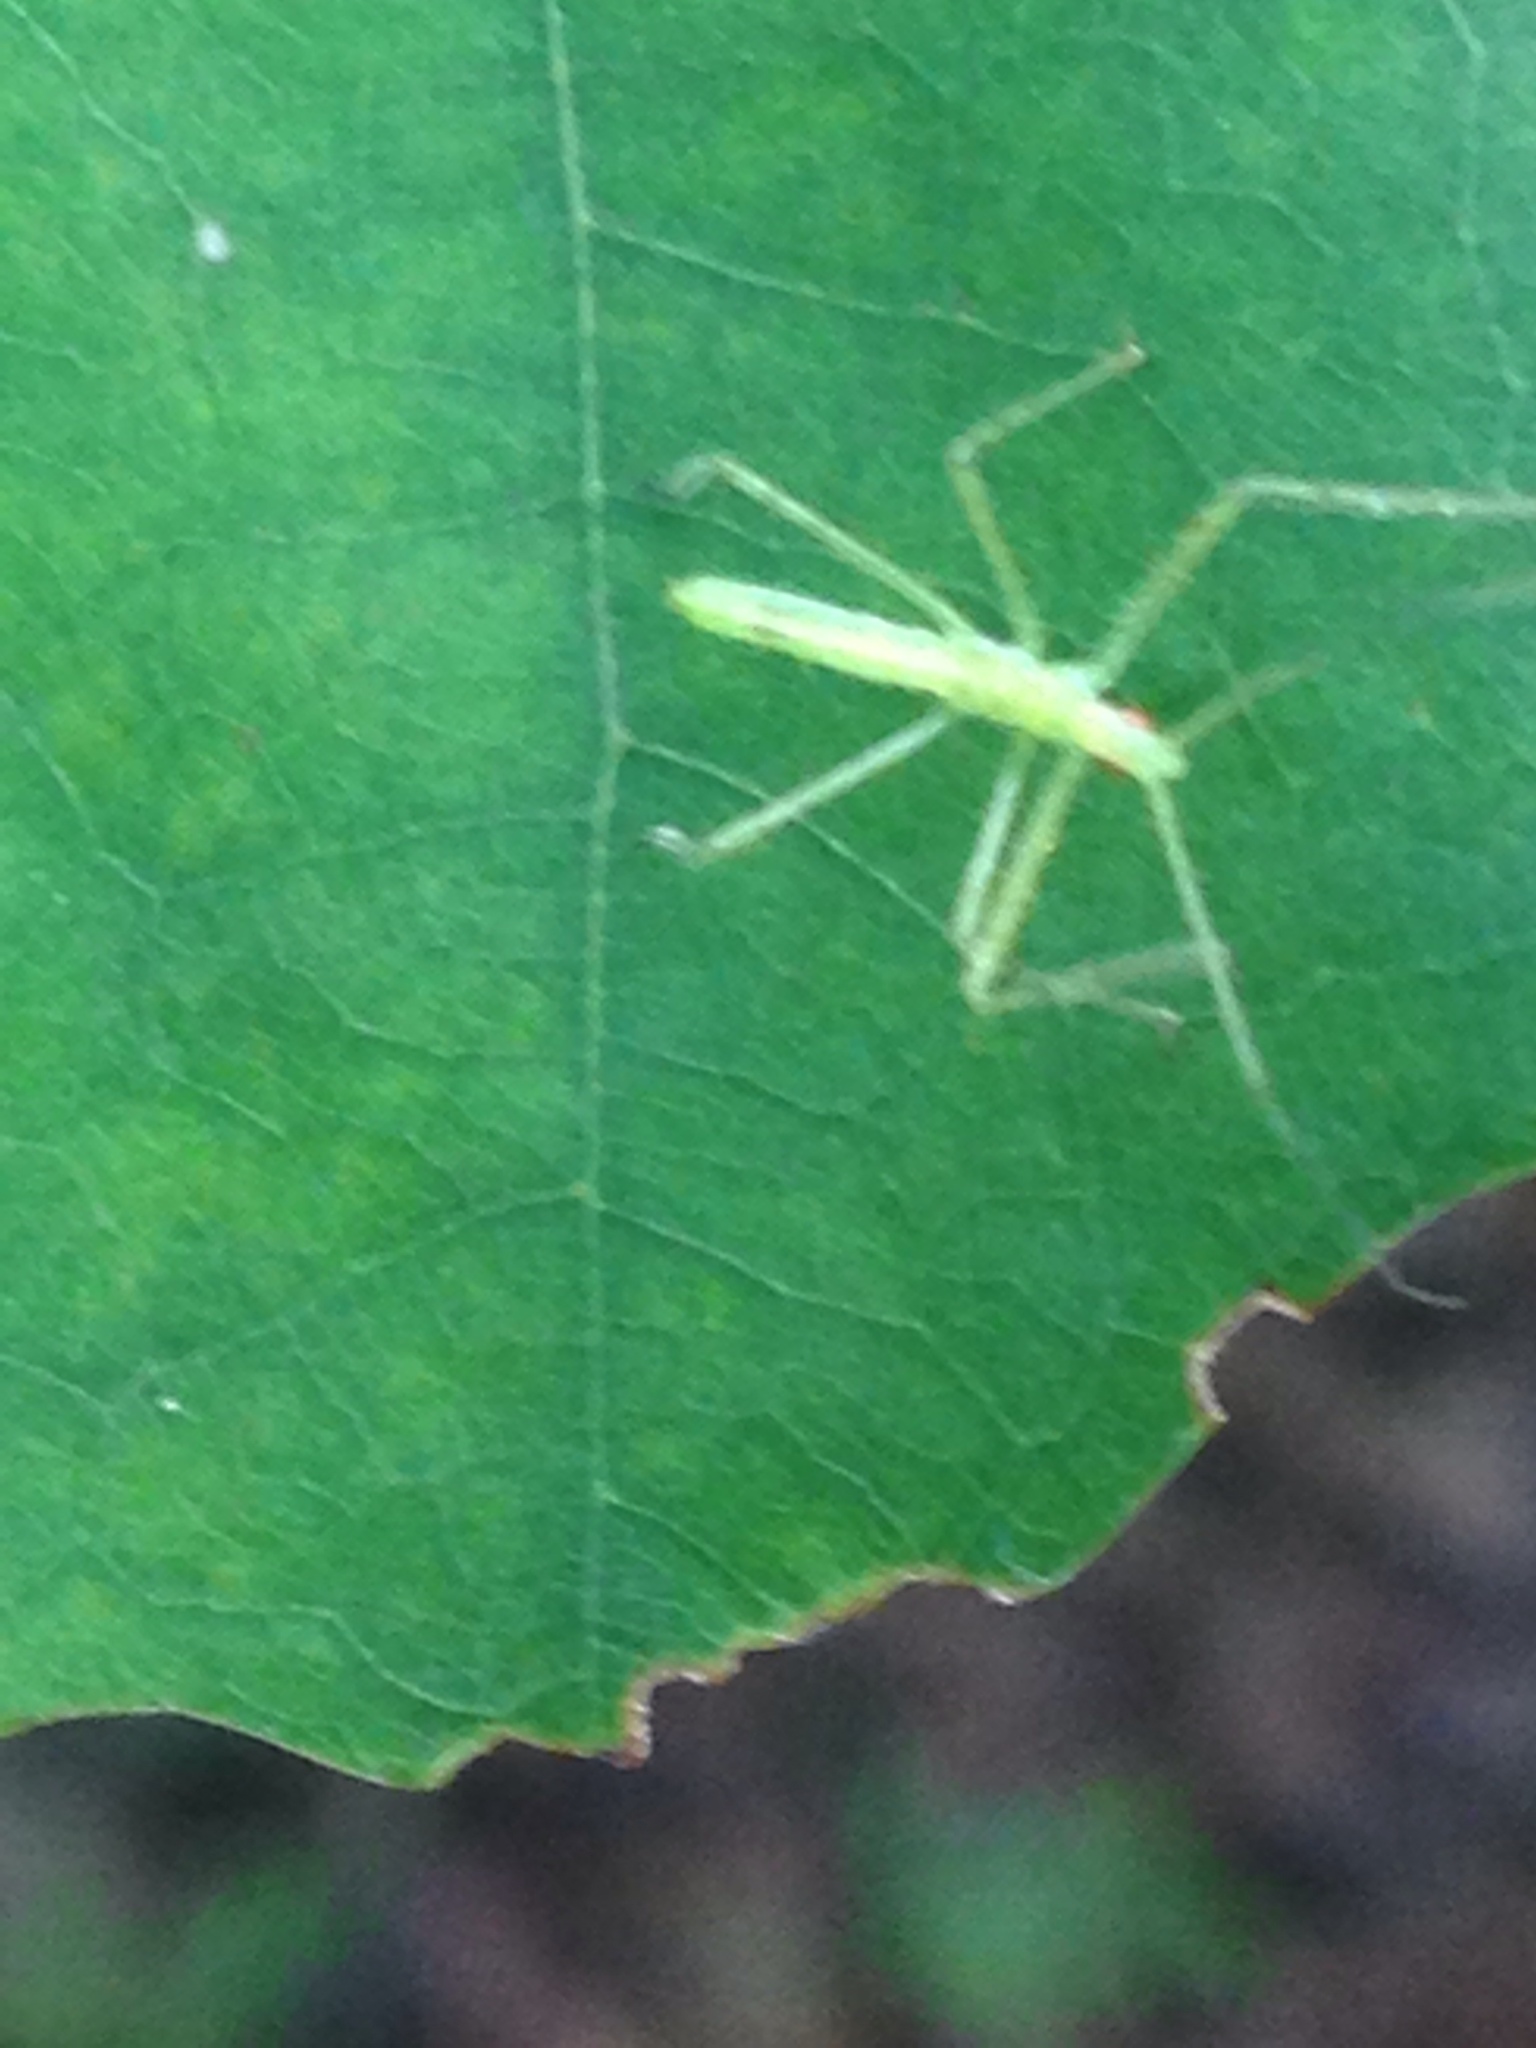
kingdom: Animalia
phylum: Arthropoda
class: Insecta
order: Hemiptera
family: Reduviidae
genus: Zelus
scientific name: Zelus luridus
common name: Pale green assassin bug
